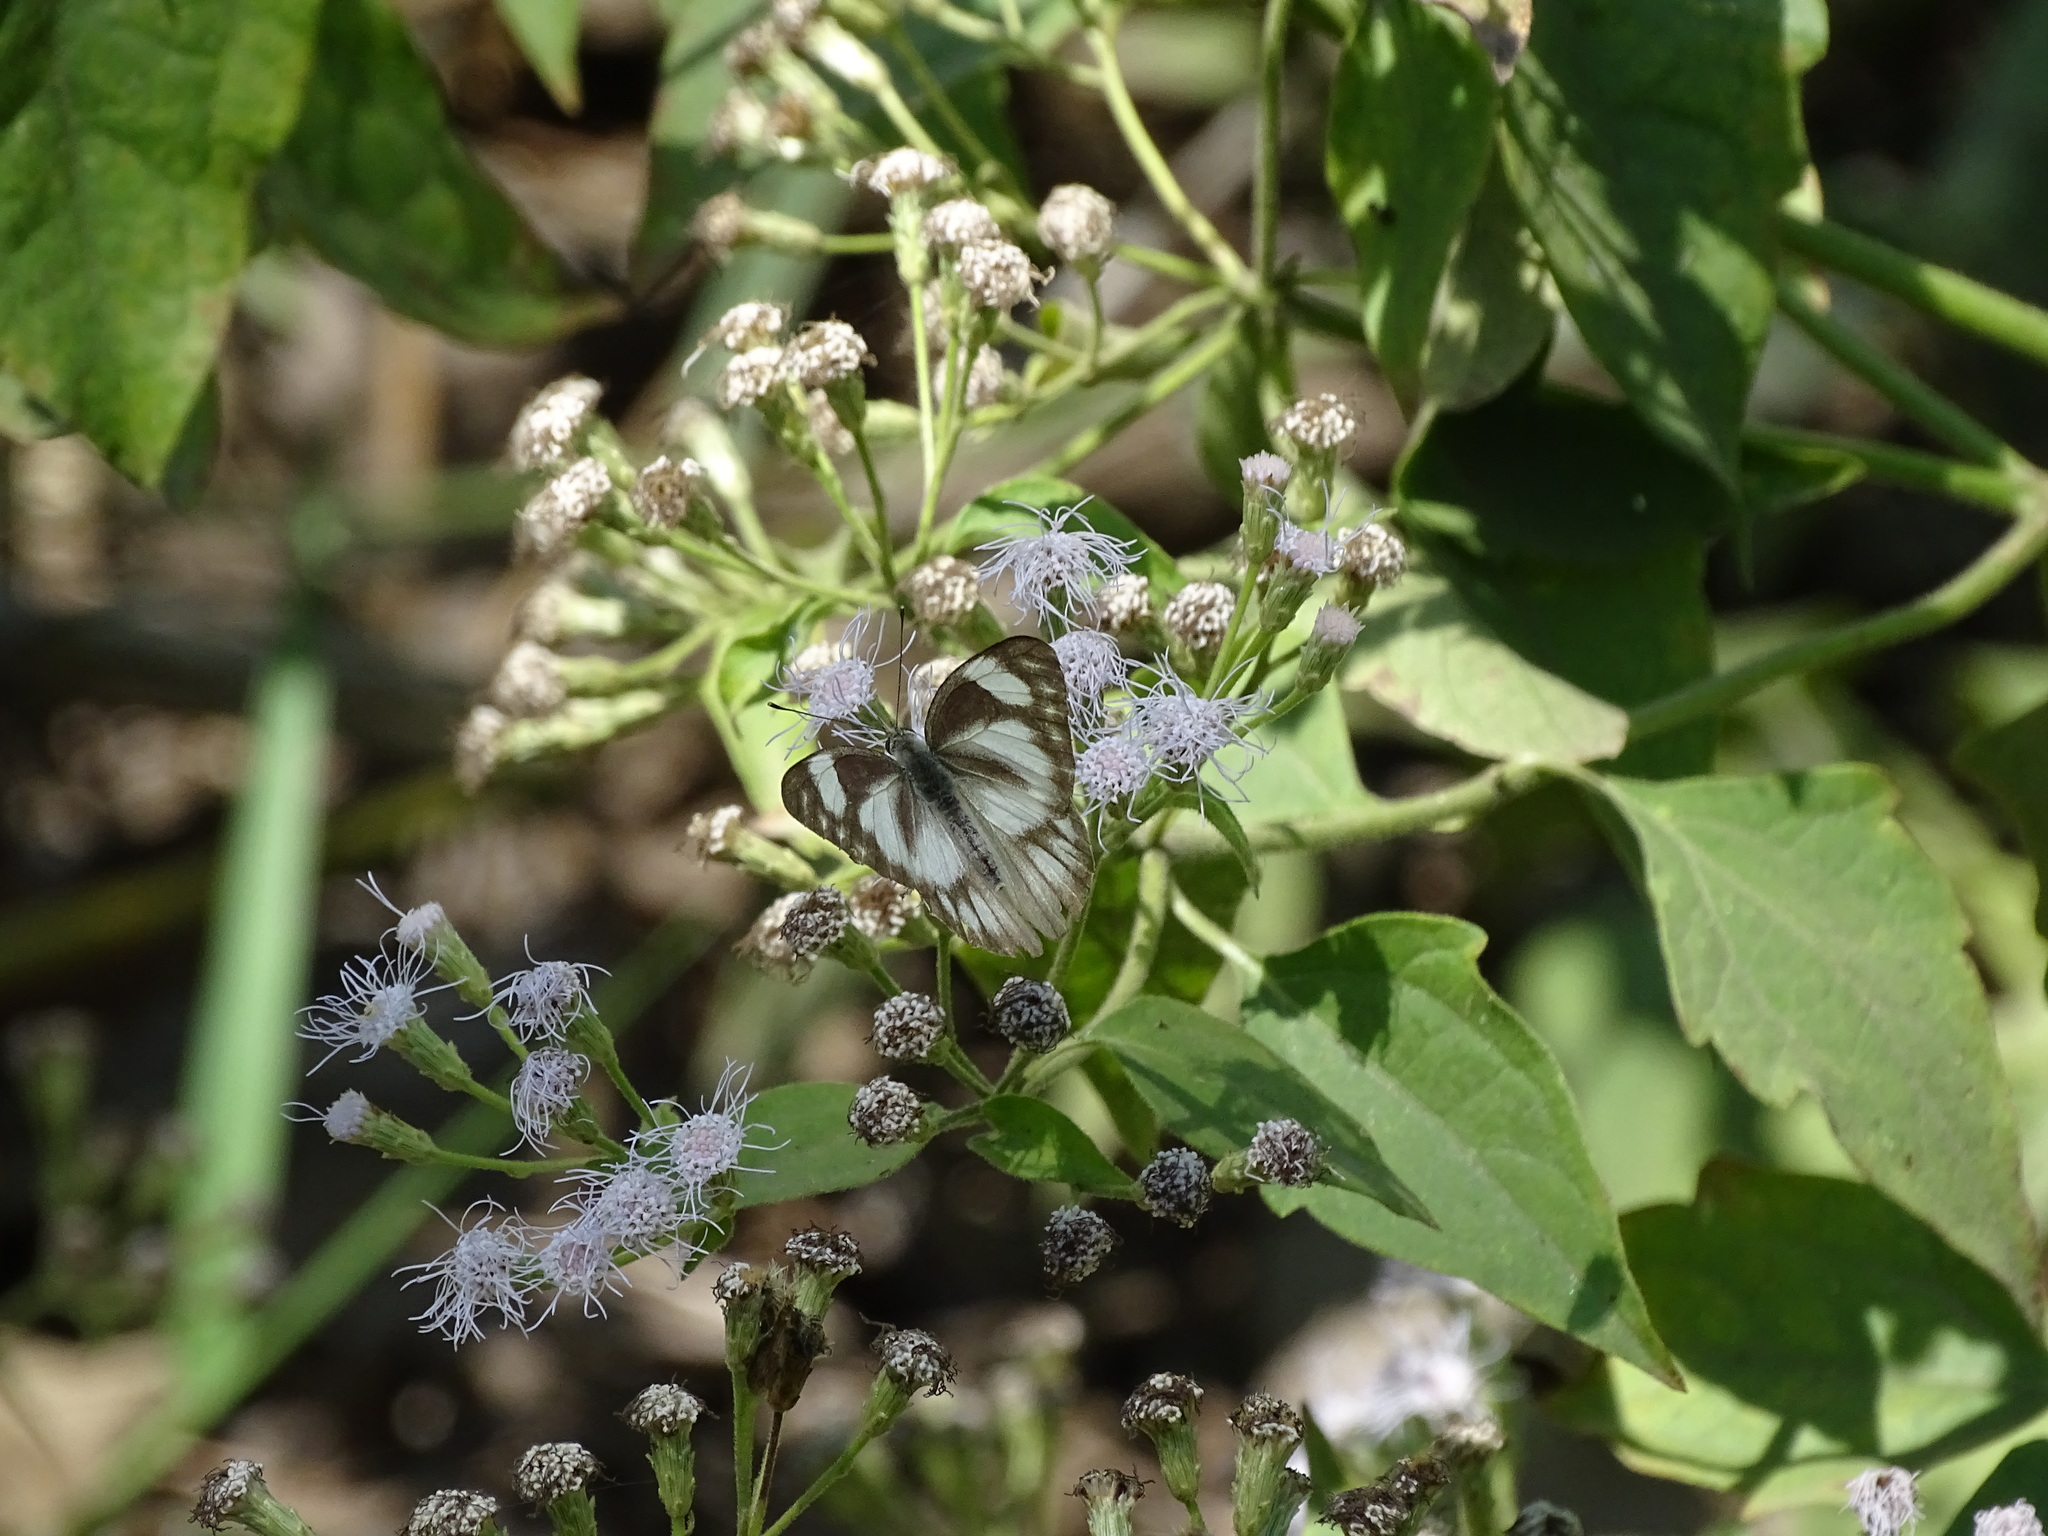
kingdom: Animalia
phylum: Arthropoda
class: Insecta
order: Lepidoptera
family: Pieridae
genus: Appias
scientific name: Appias libythea
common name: Striped albatross
